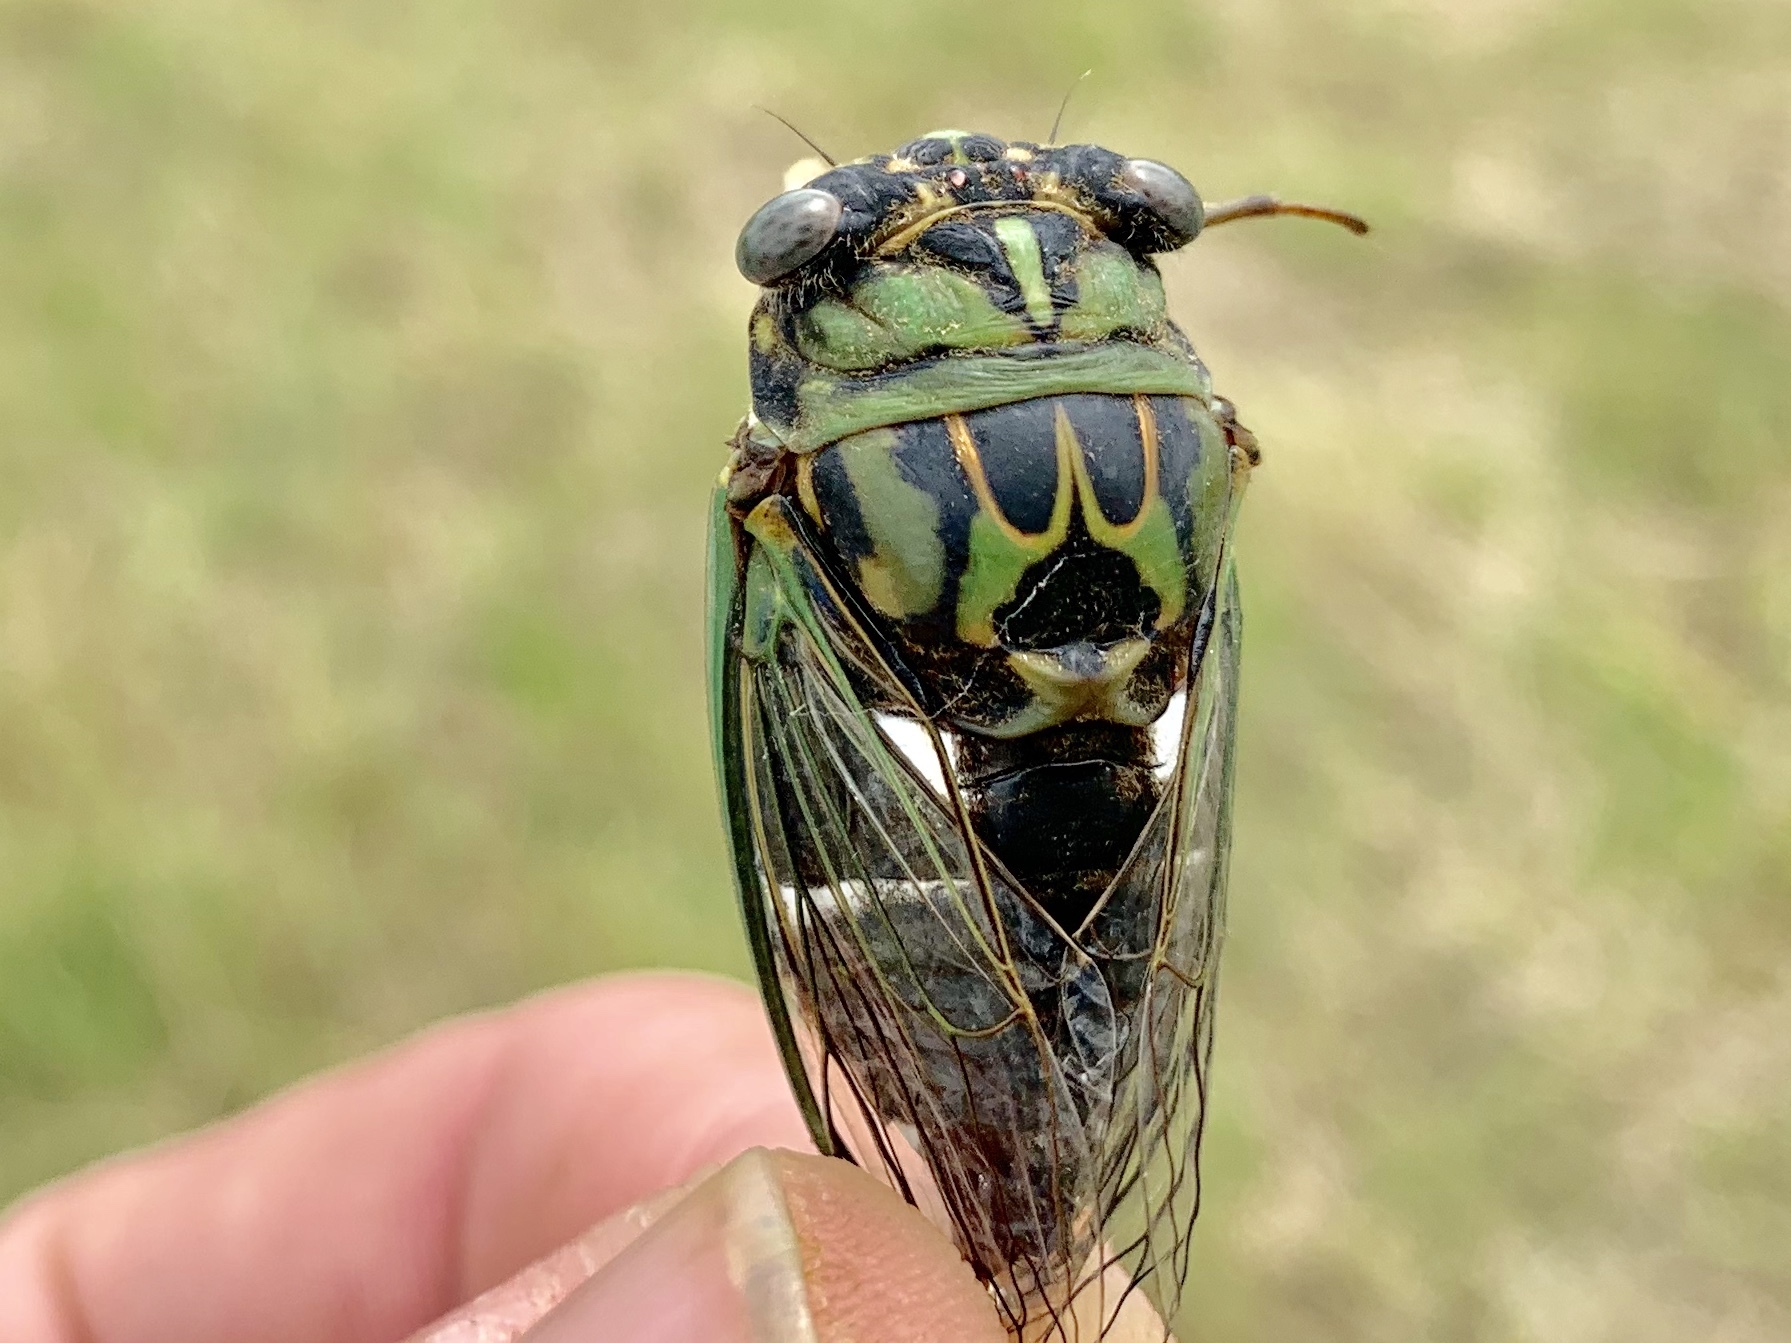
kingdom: Animalia
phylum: Arthropoda
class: Insecta
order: Hemiptera
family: Cicadidae
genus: Neotibicen
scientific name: Neotibicen pruinosus
